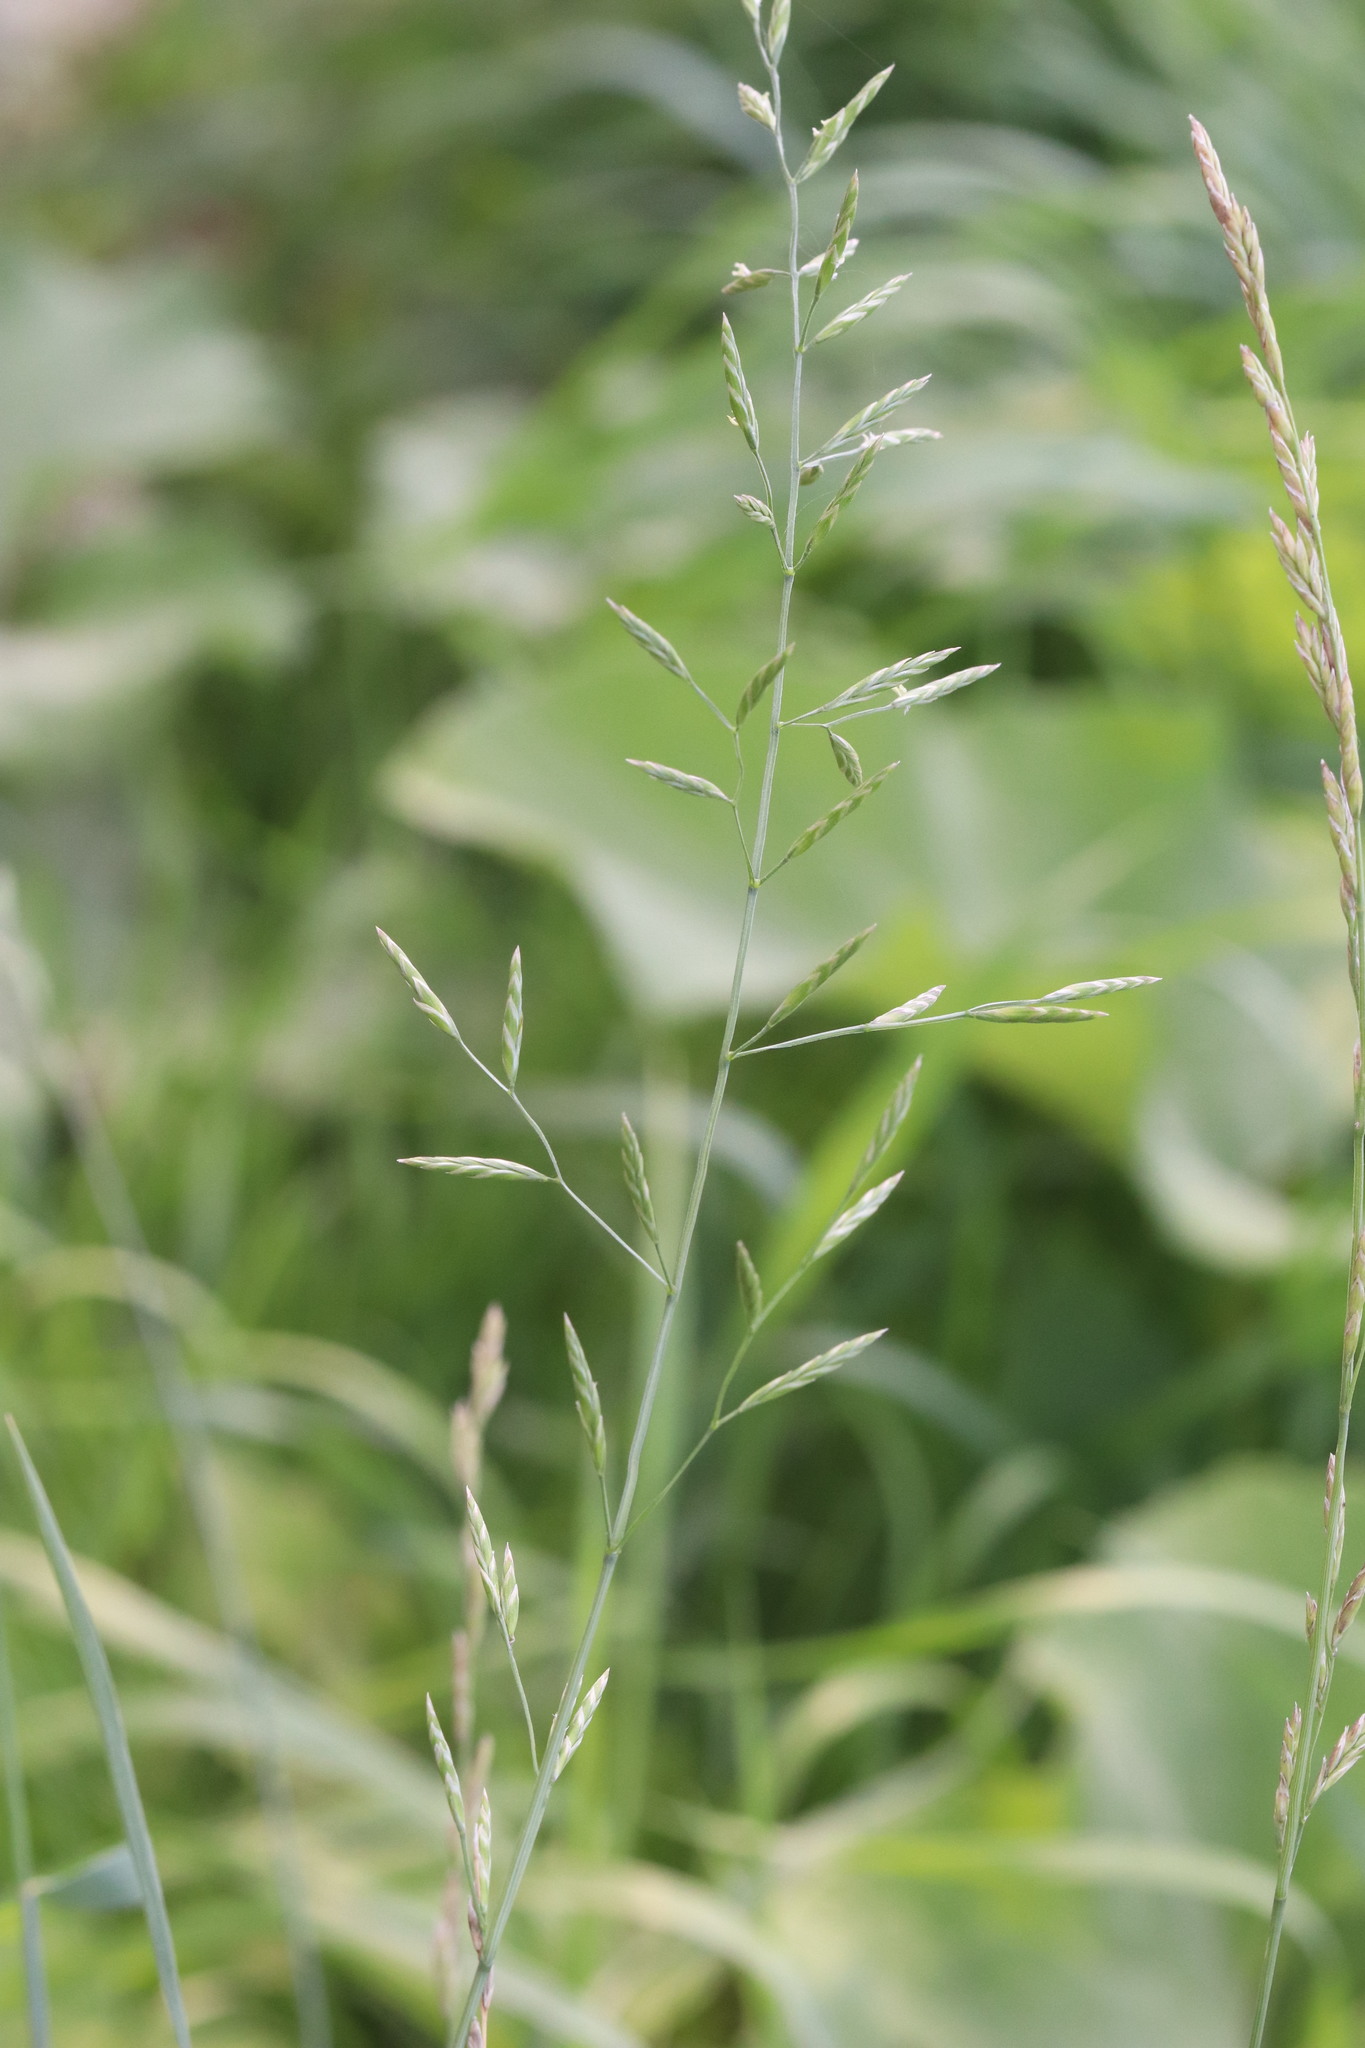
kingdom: Plantae
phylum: Tracheophyta
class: Liliopsida
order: Poales
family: Poaceae
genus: Lolium
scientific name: Lolium pratense
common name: Dover grass
